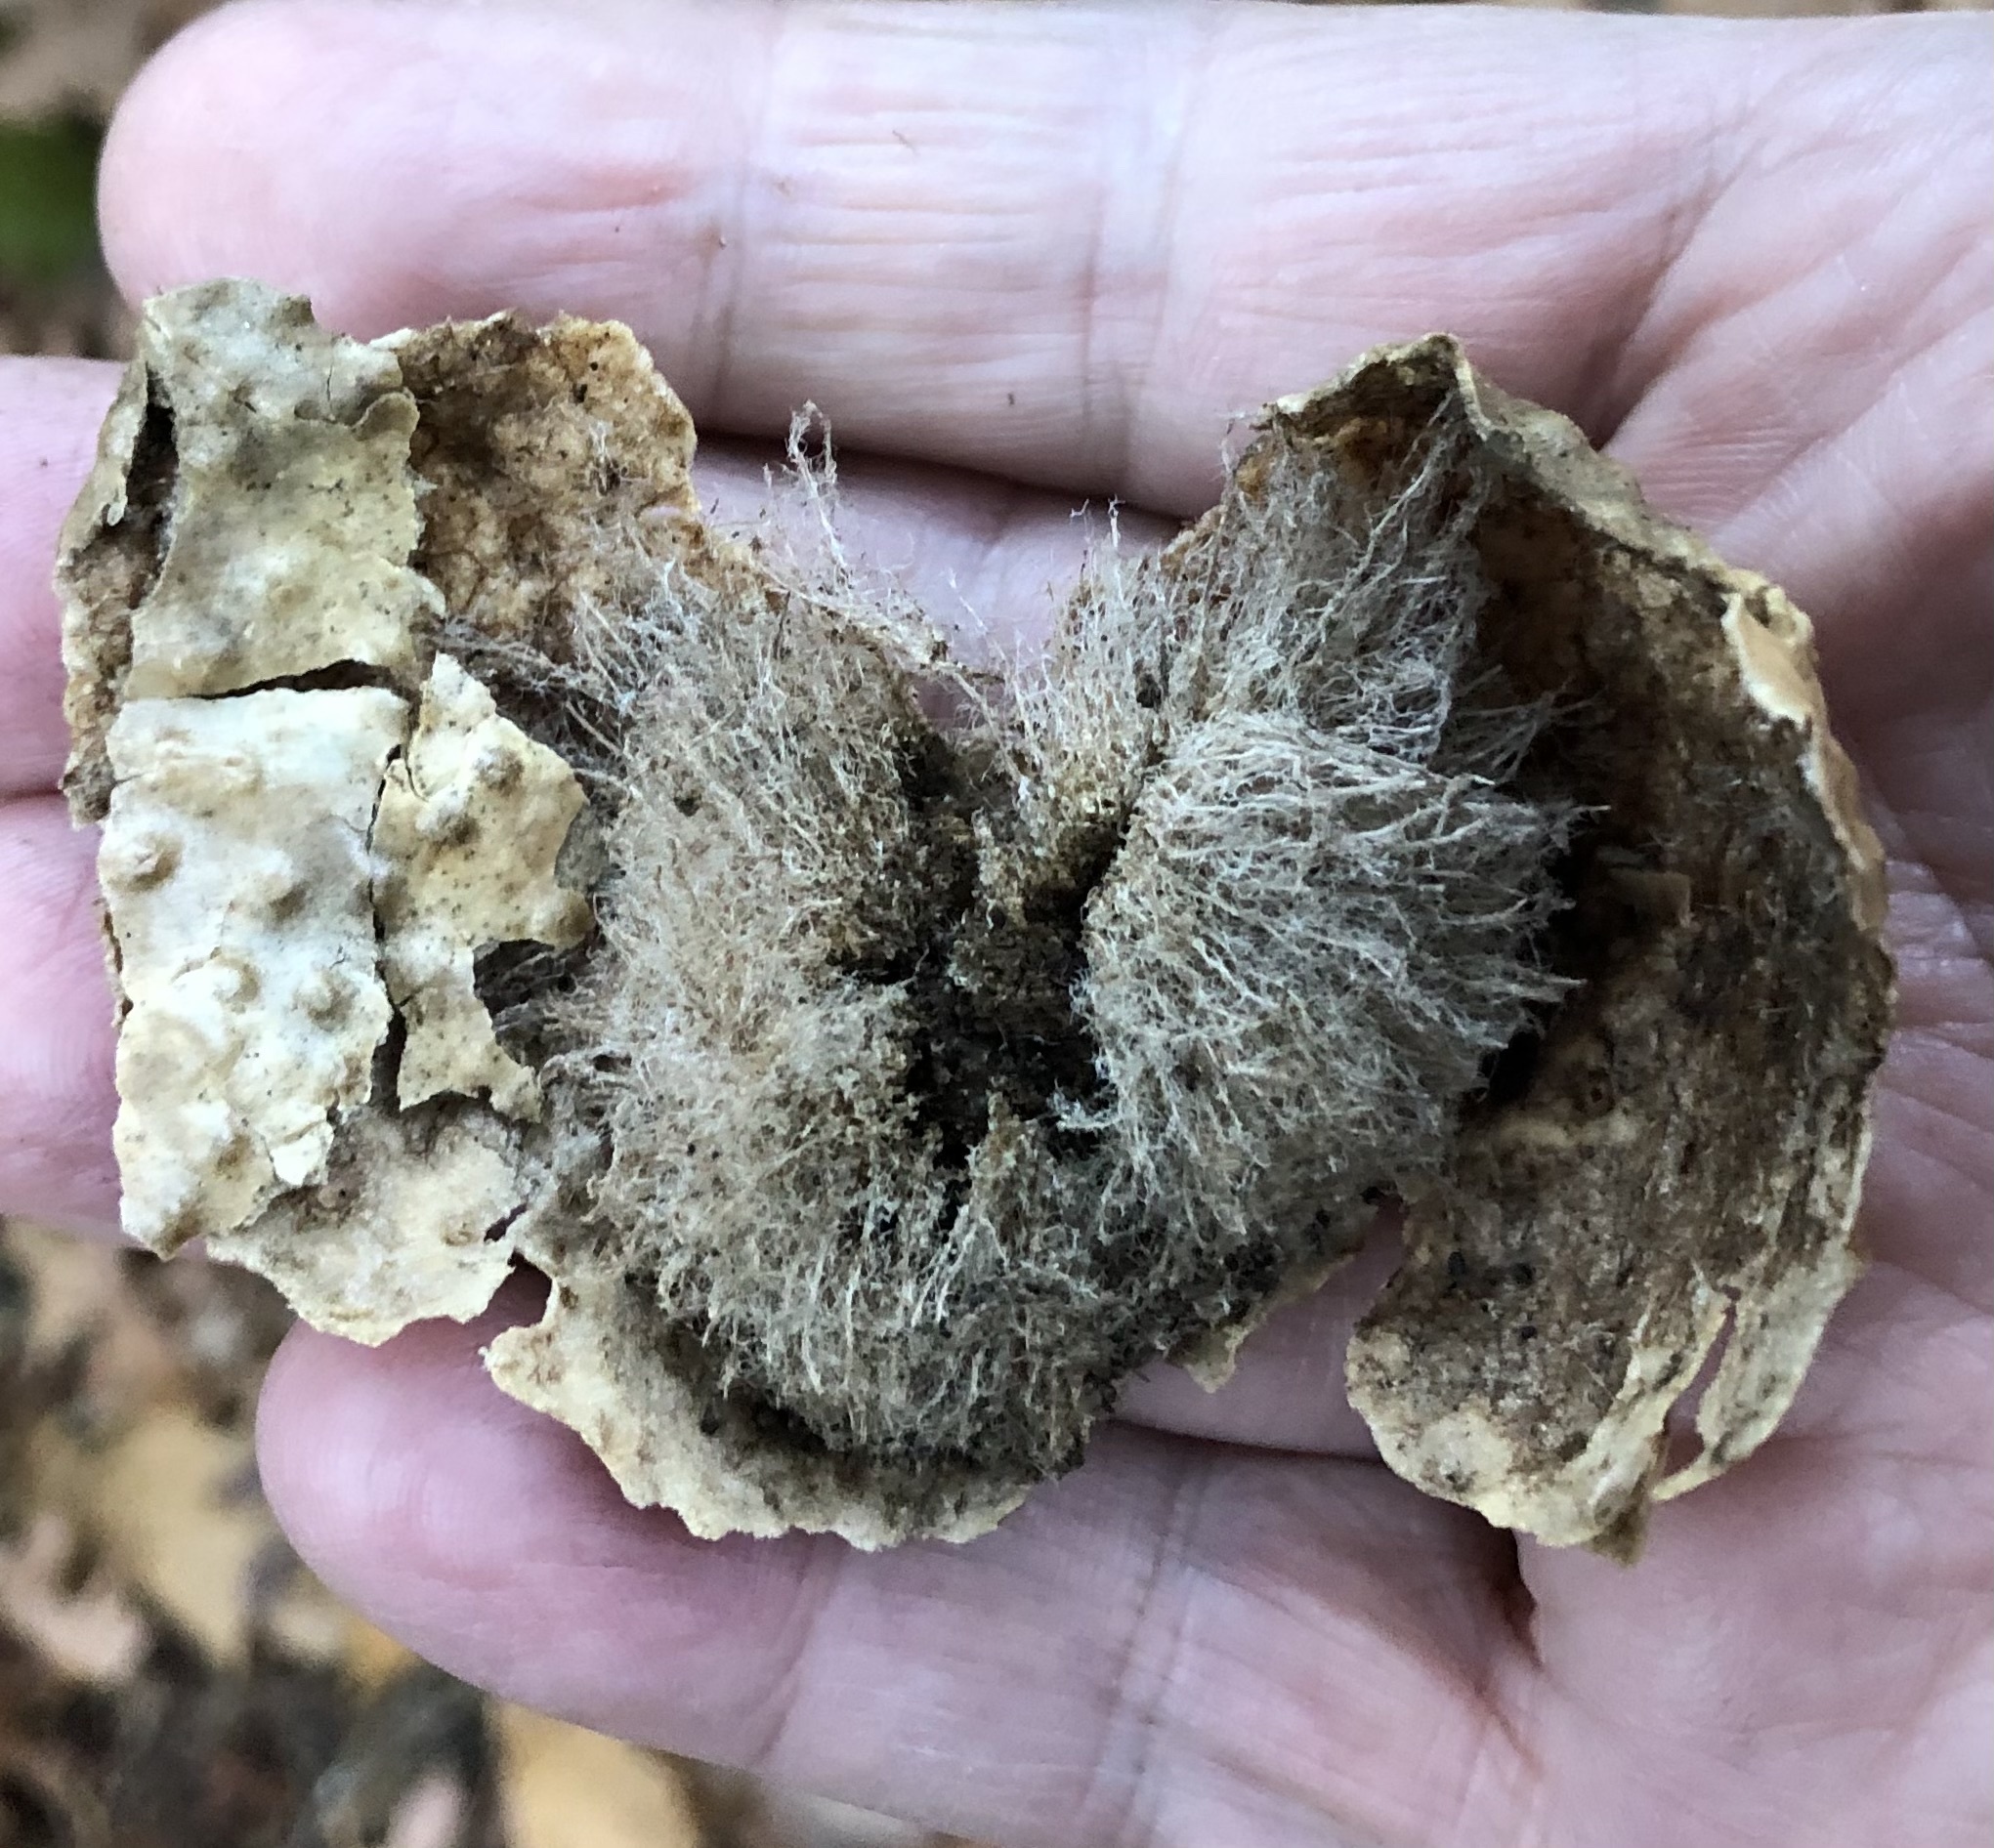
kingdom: Animalia
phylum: Arthropoda
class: Insecta
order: Hymenoptera
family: Cynipidae
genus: Amphibolips
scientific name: Amphibolips
